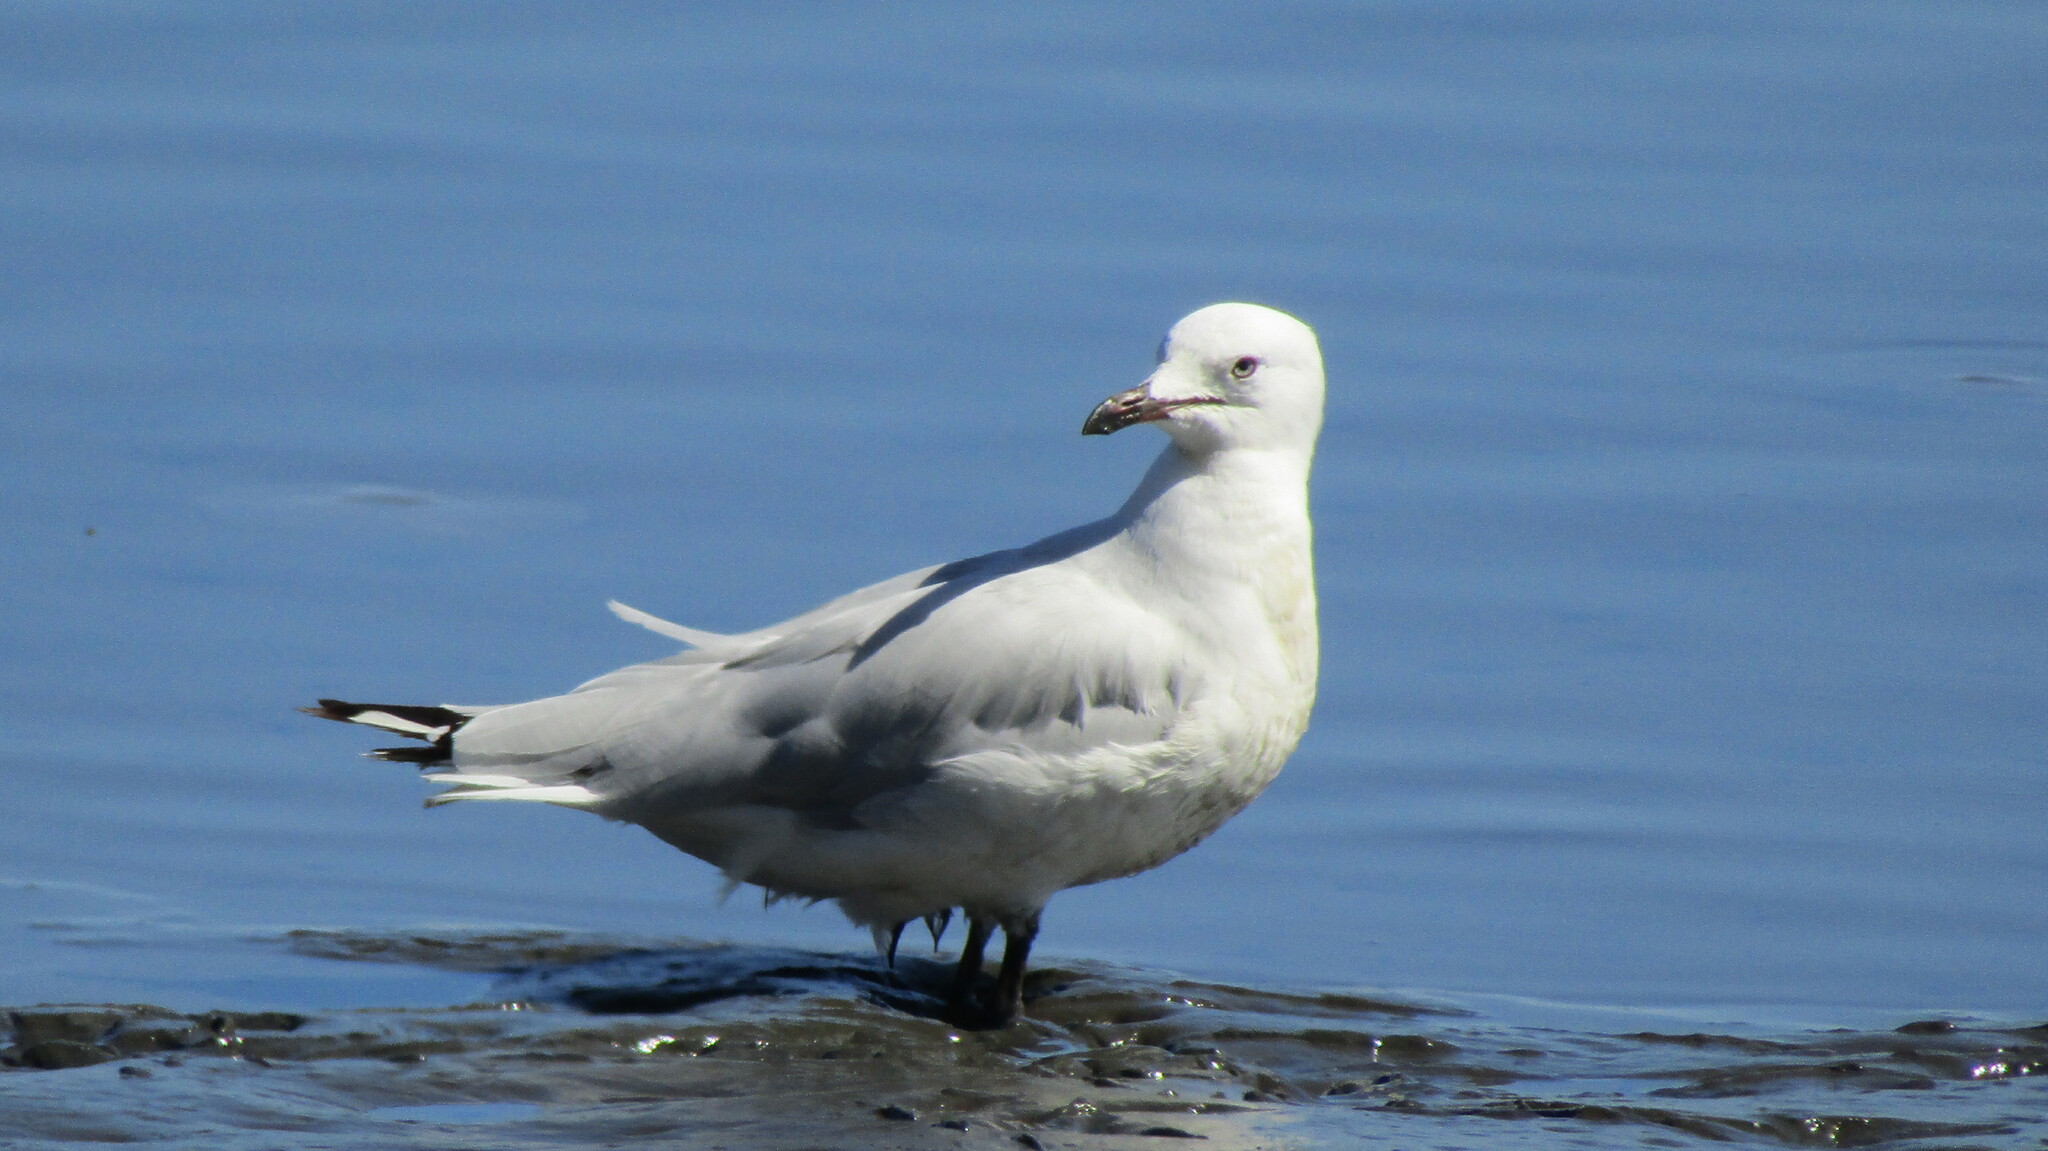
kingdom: Animalia
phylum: Chordata
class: Aves
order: Charadriiformes
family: Laridae
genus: Chroicocephalus
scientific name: Chroicocephalus novaehollandiae
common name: Silver gull
